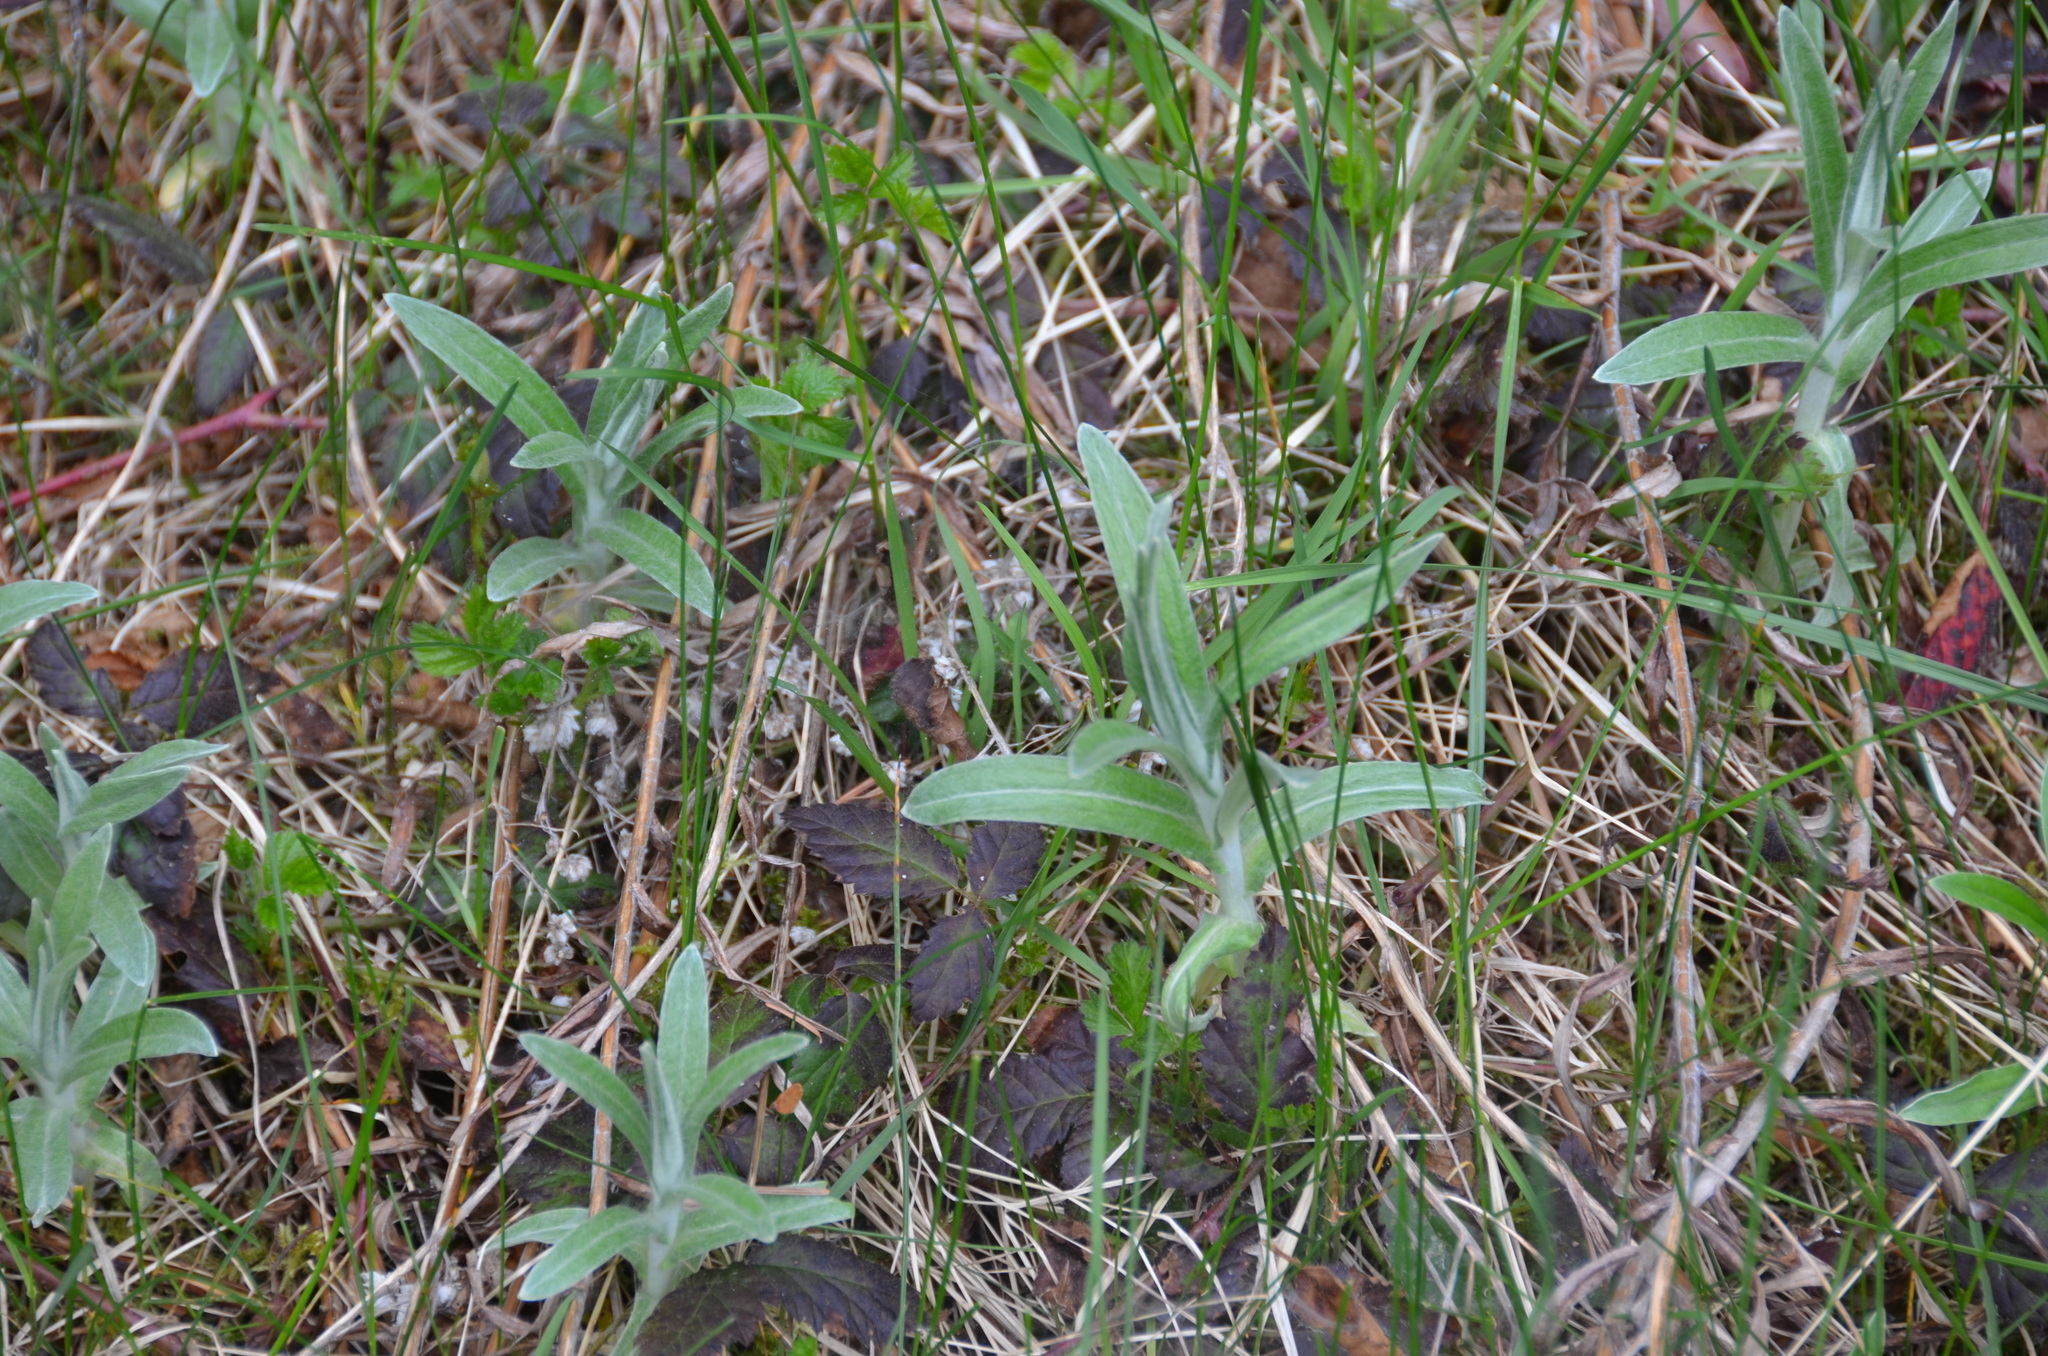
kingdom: Plantae
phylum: Tracheophyta
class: Magnoliopsida
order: Asterales
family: Asteraceae
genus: Anaphalis
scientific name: Anaphalis margaritacea
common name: Pearly everlasting
